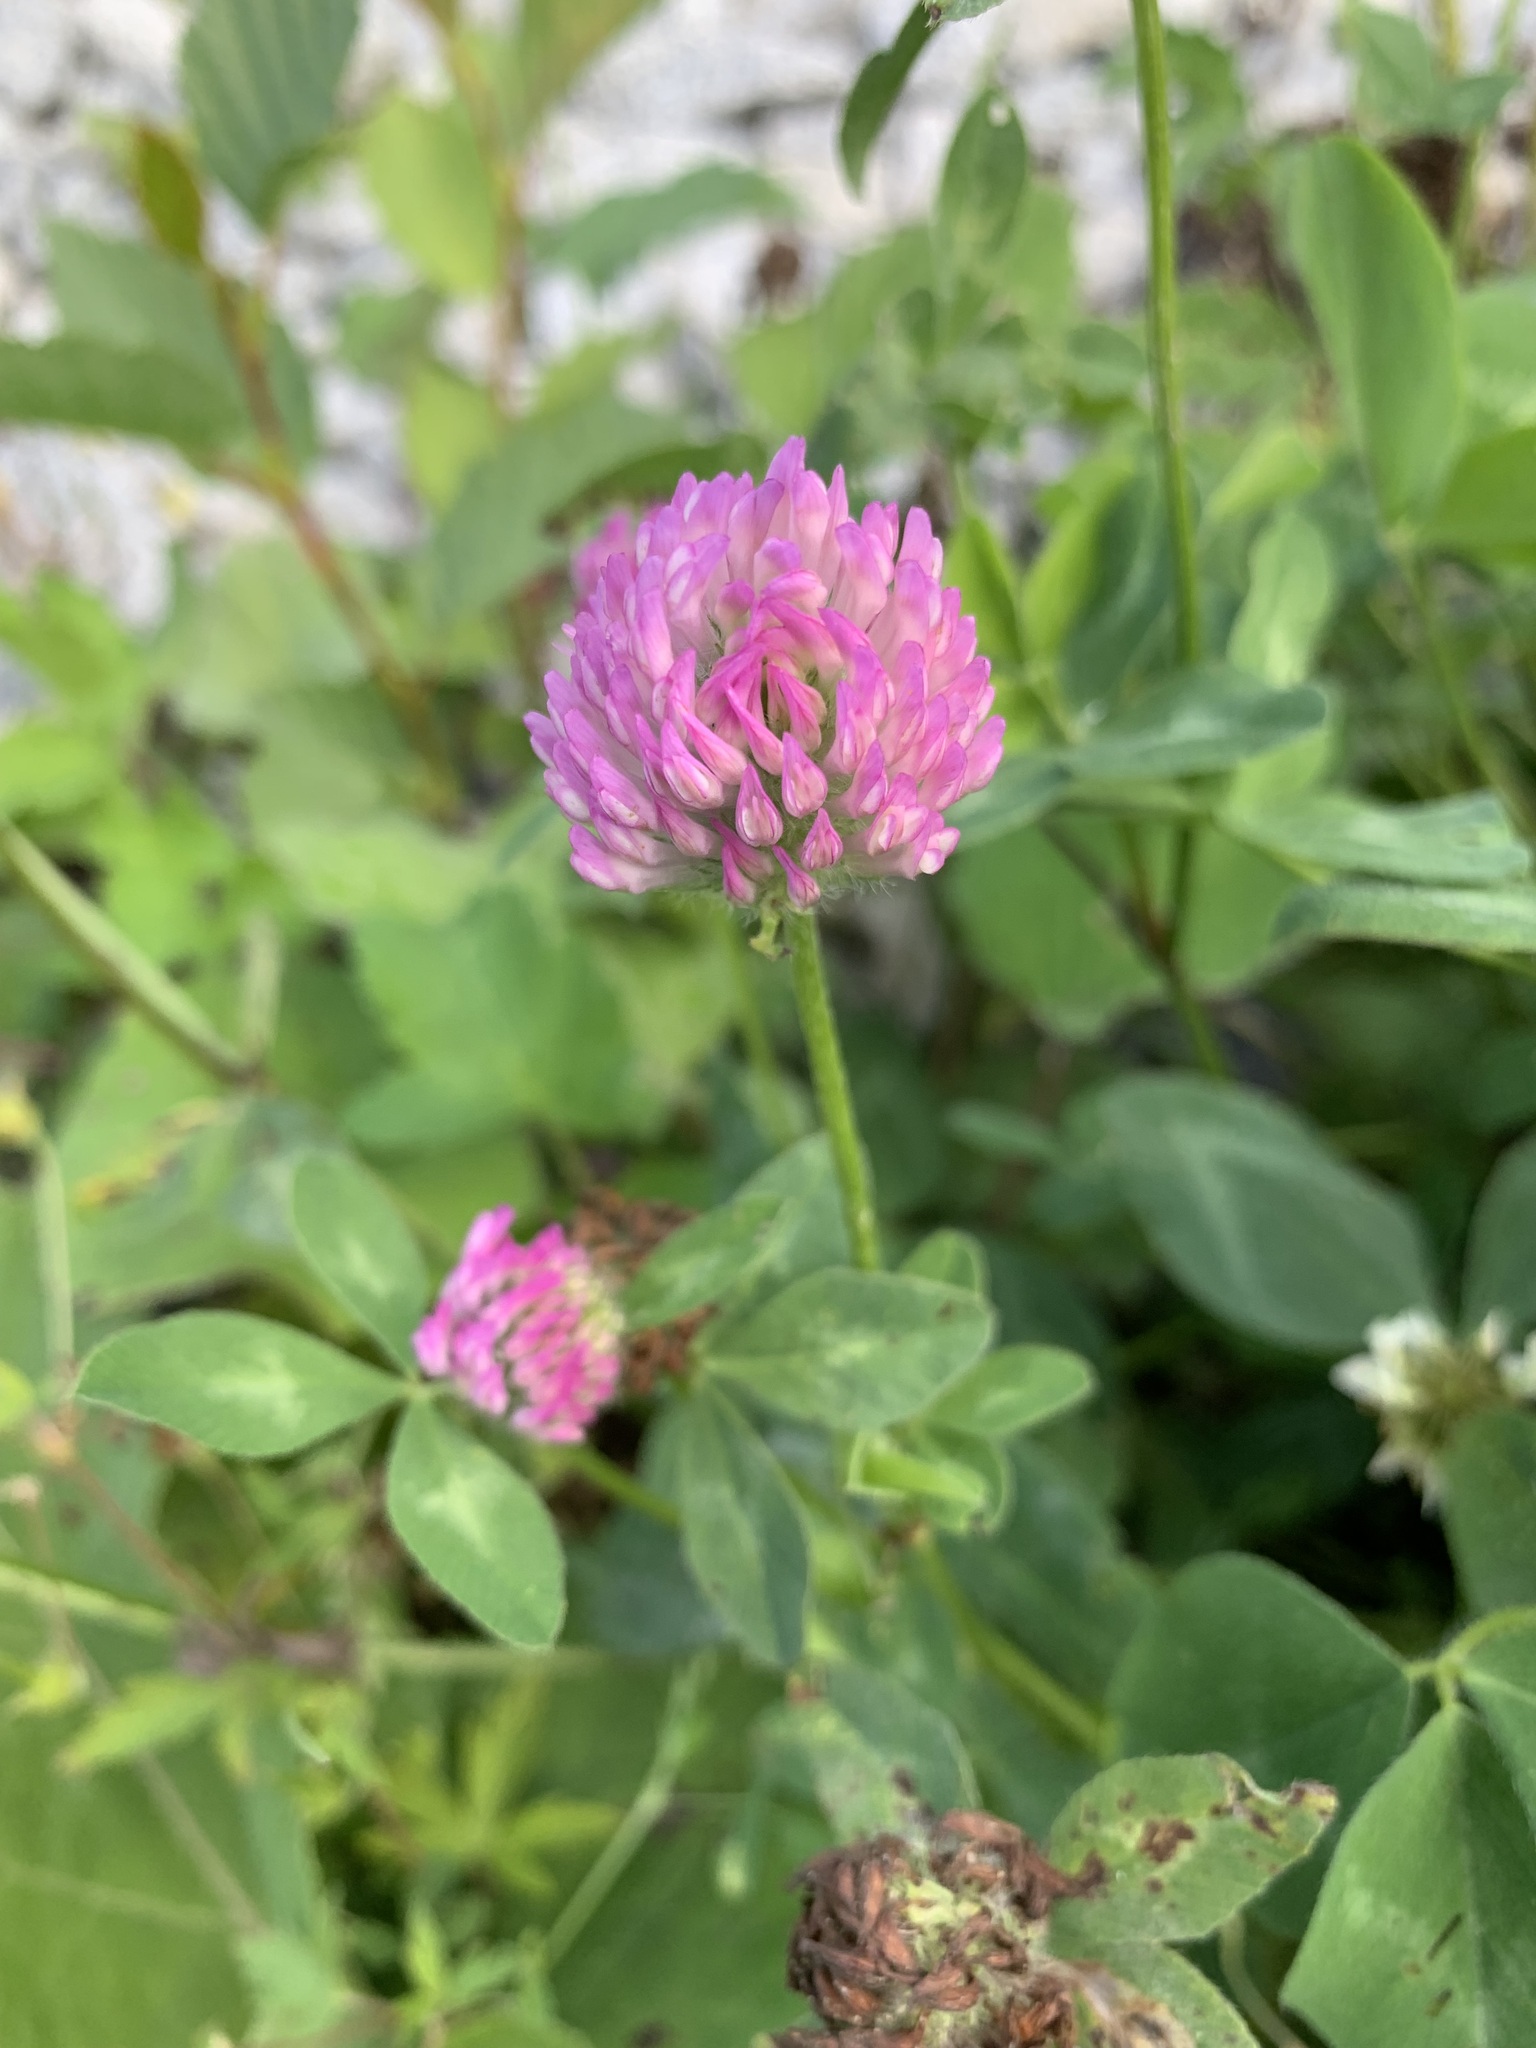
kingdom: Plantae
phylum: Tracheophyta
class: Magnoliopsida
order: Fabales
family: Fabaceae
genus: Trifolium
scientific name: Trifolium pratense
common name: Red clover
